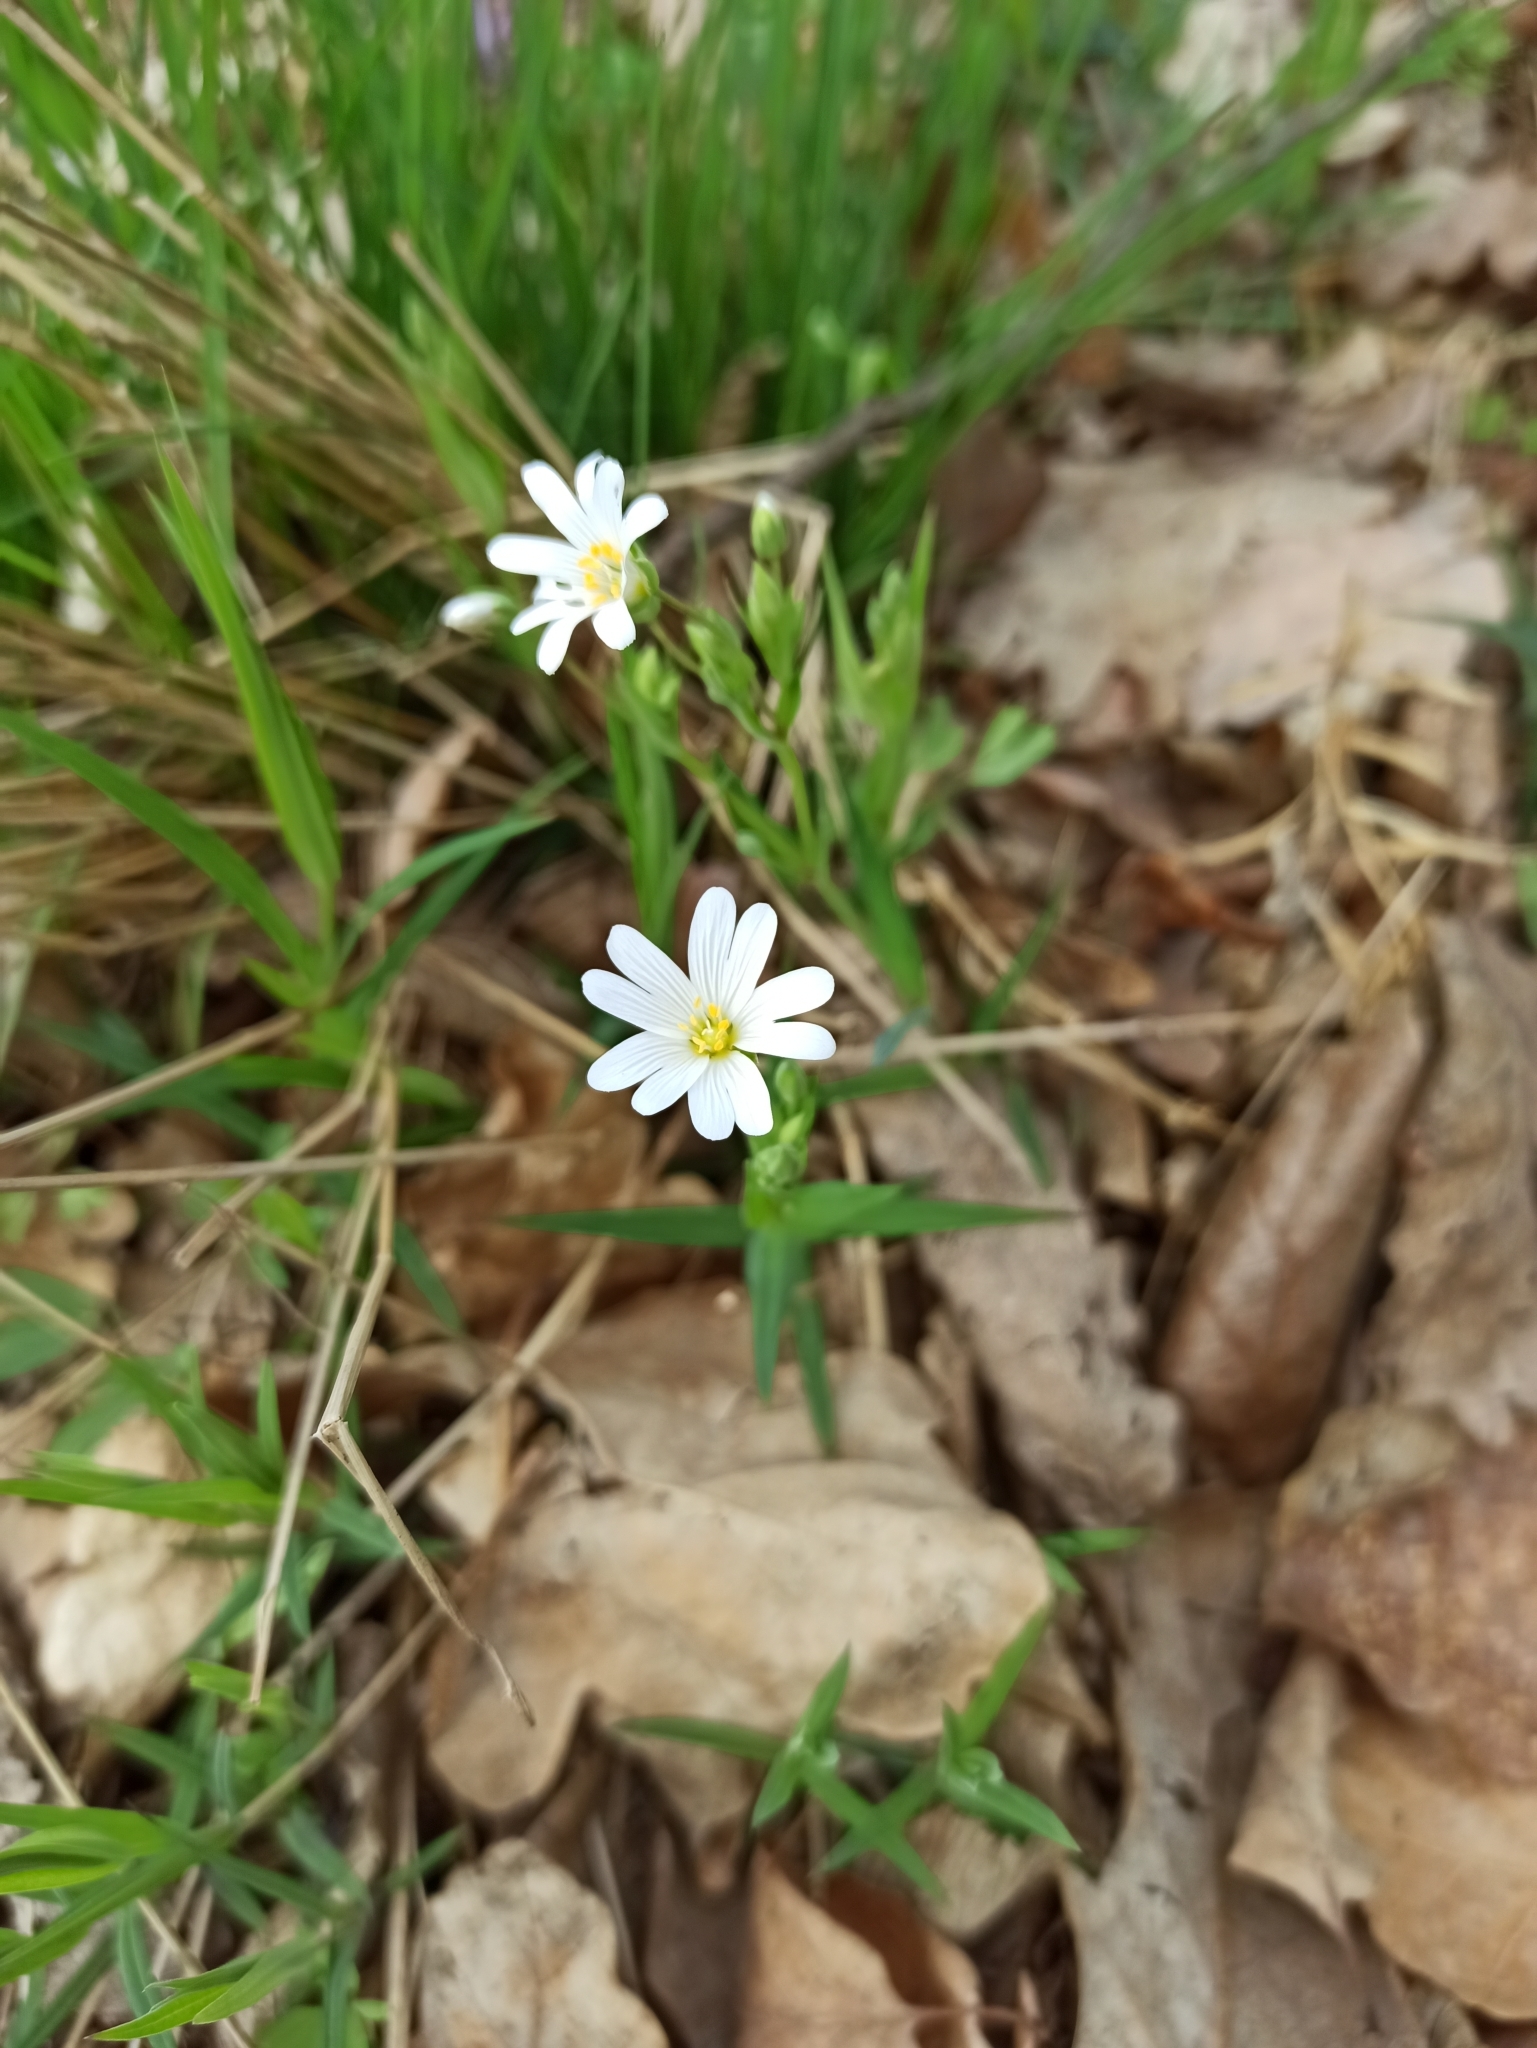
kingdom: Plantae
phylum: Tracheophyta
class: Magnoliopsida
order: Caryophyllales
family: Caryophyllaceae
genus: Rabelera
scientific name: Rabelera holostea
